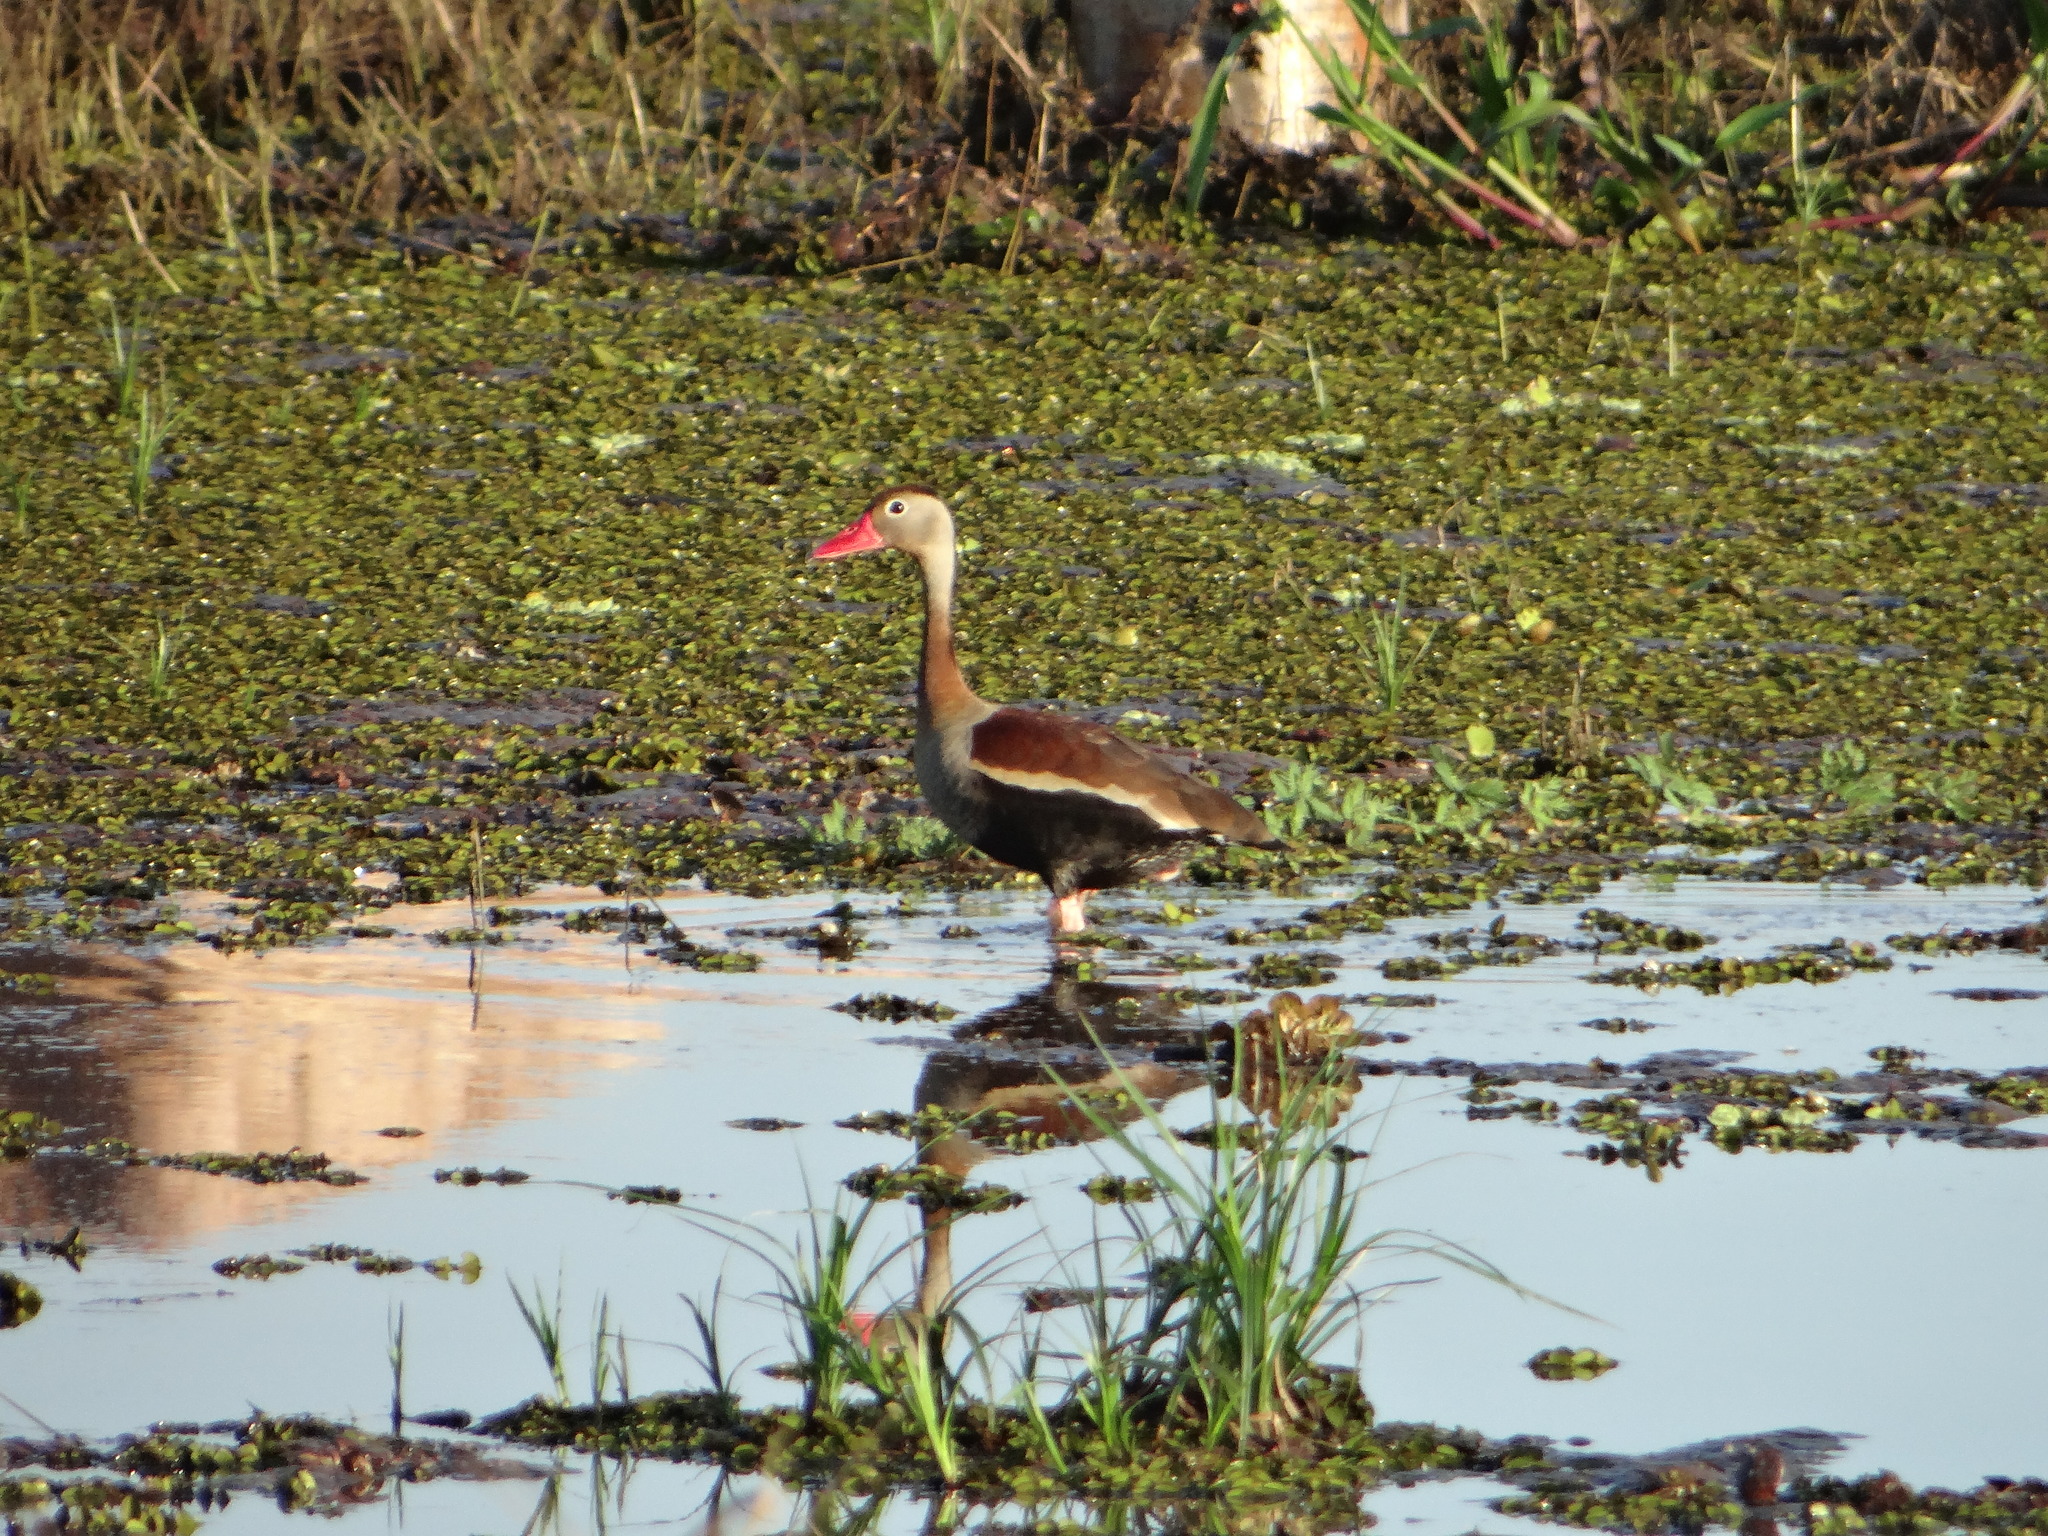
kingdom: Animalia
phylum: Chordata
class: Aves
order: Anseriformes
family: Anatidae
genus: Dendrocygna
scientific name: Dendrocygna autumnalis
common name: Black-bellied whistling duck
